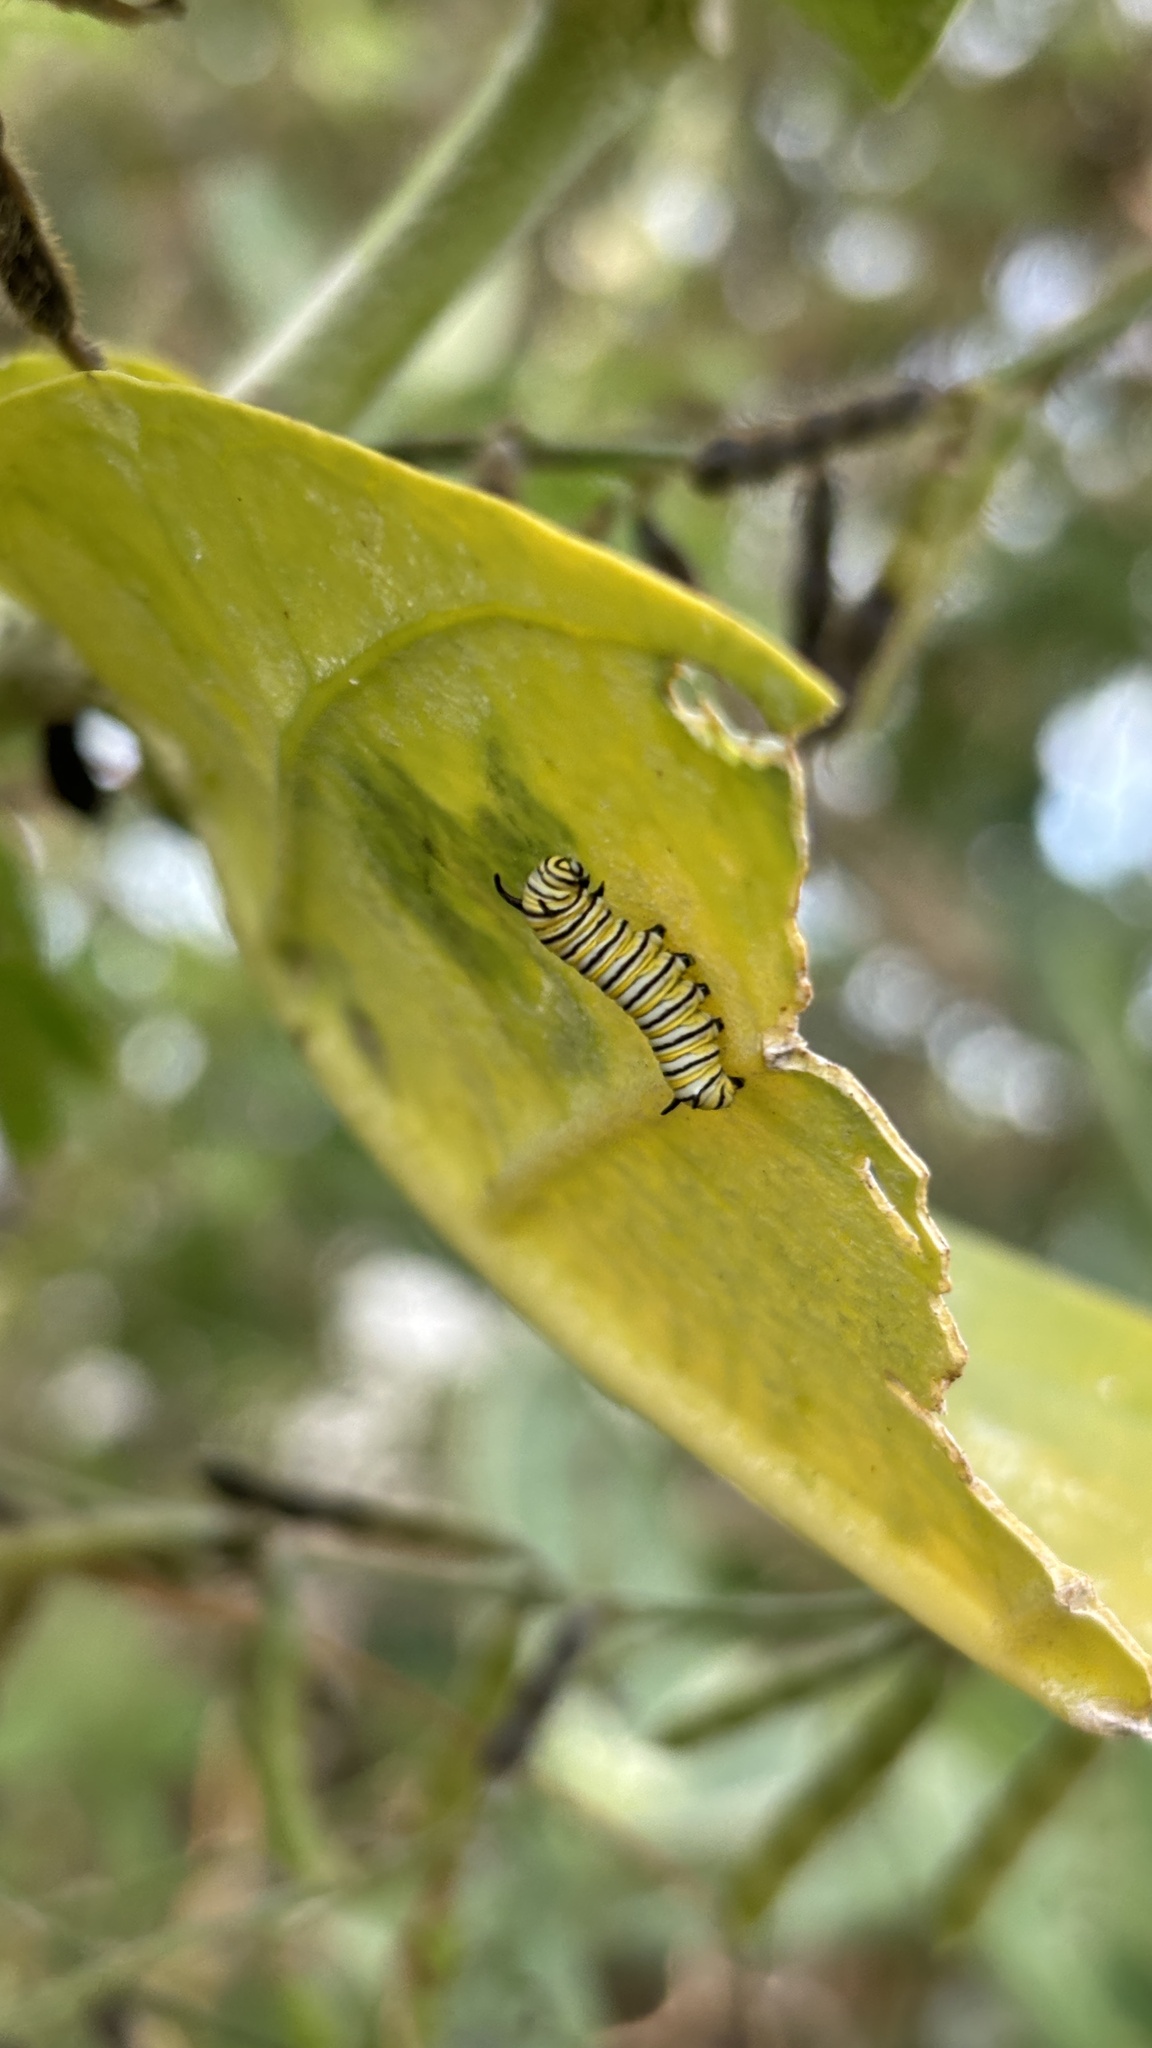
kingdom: Animalia
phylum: Arthropoda
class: Insecta
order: Lepidoptera
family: Nymphalidae
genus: Danaus
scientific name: Danaus plexippus
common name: Monarch
